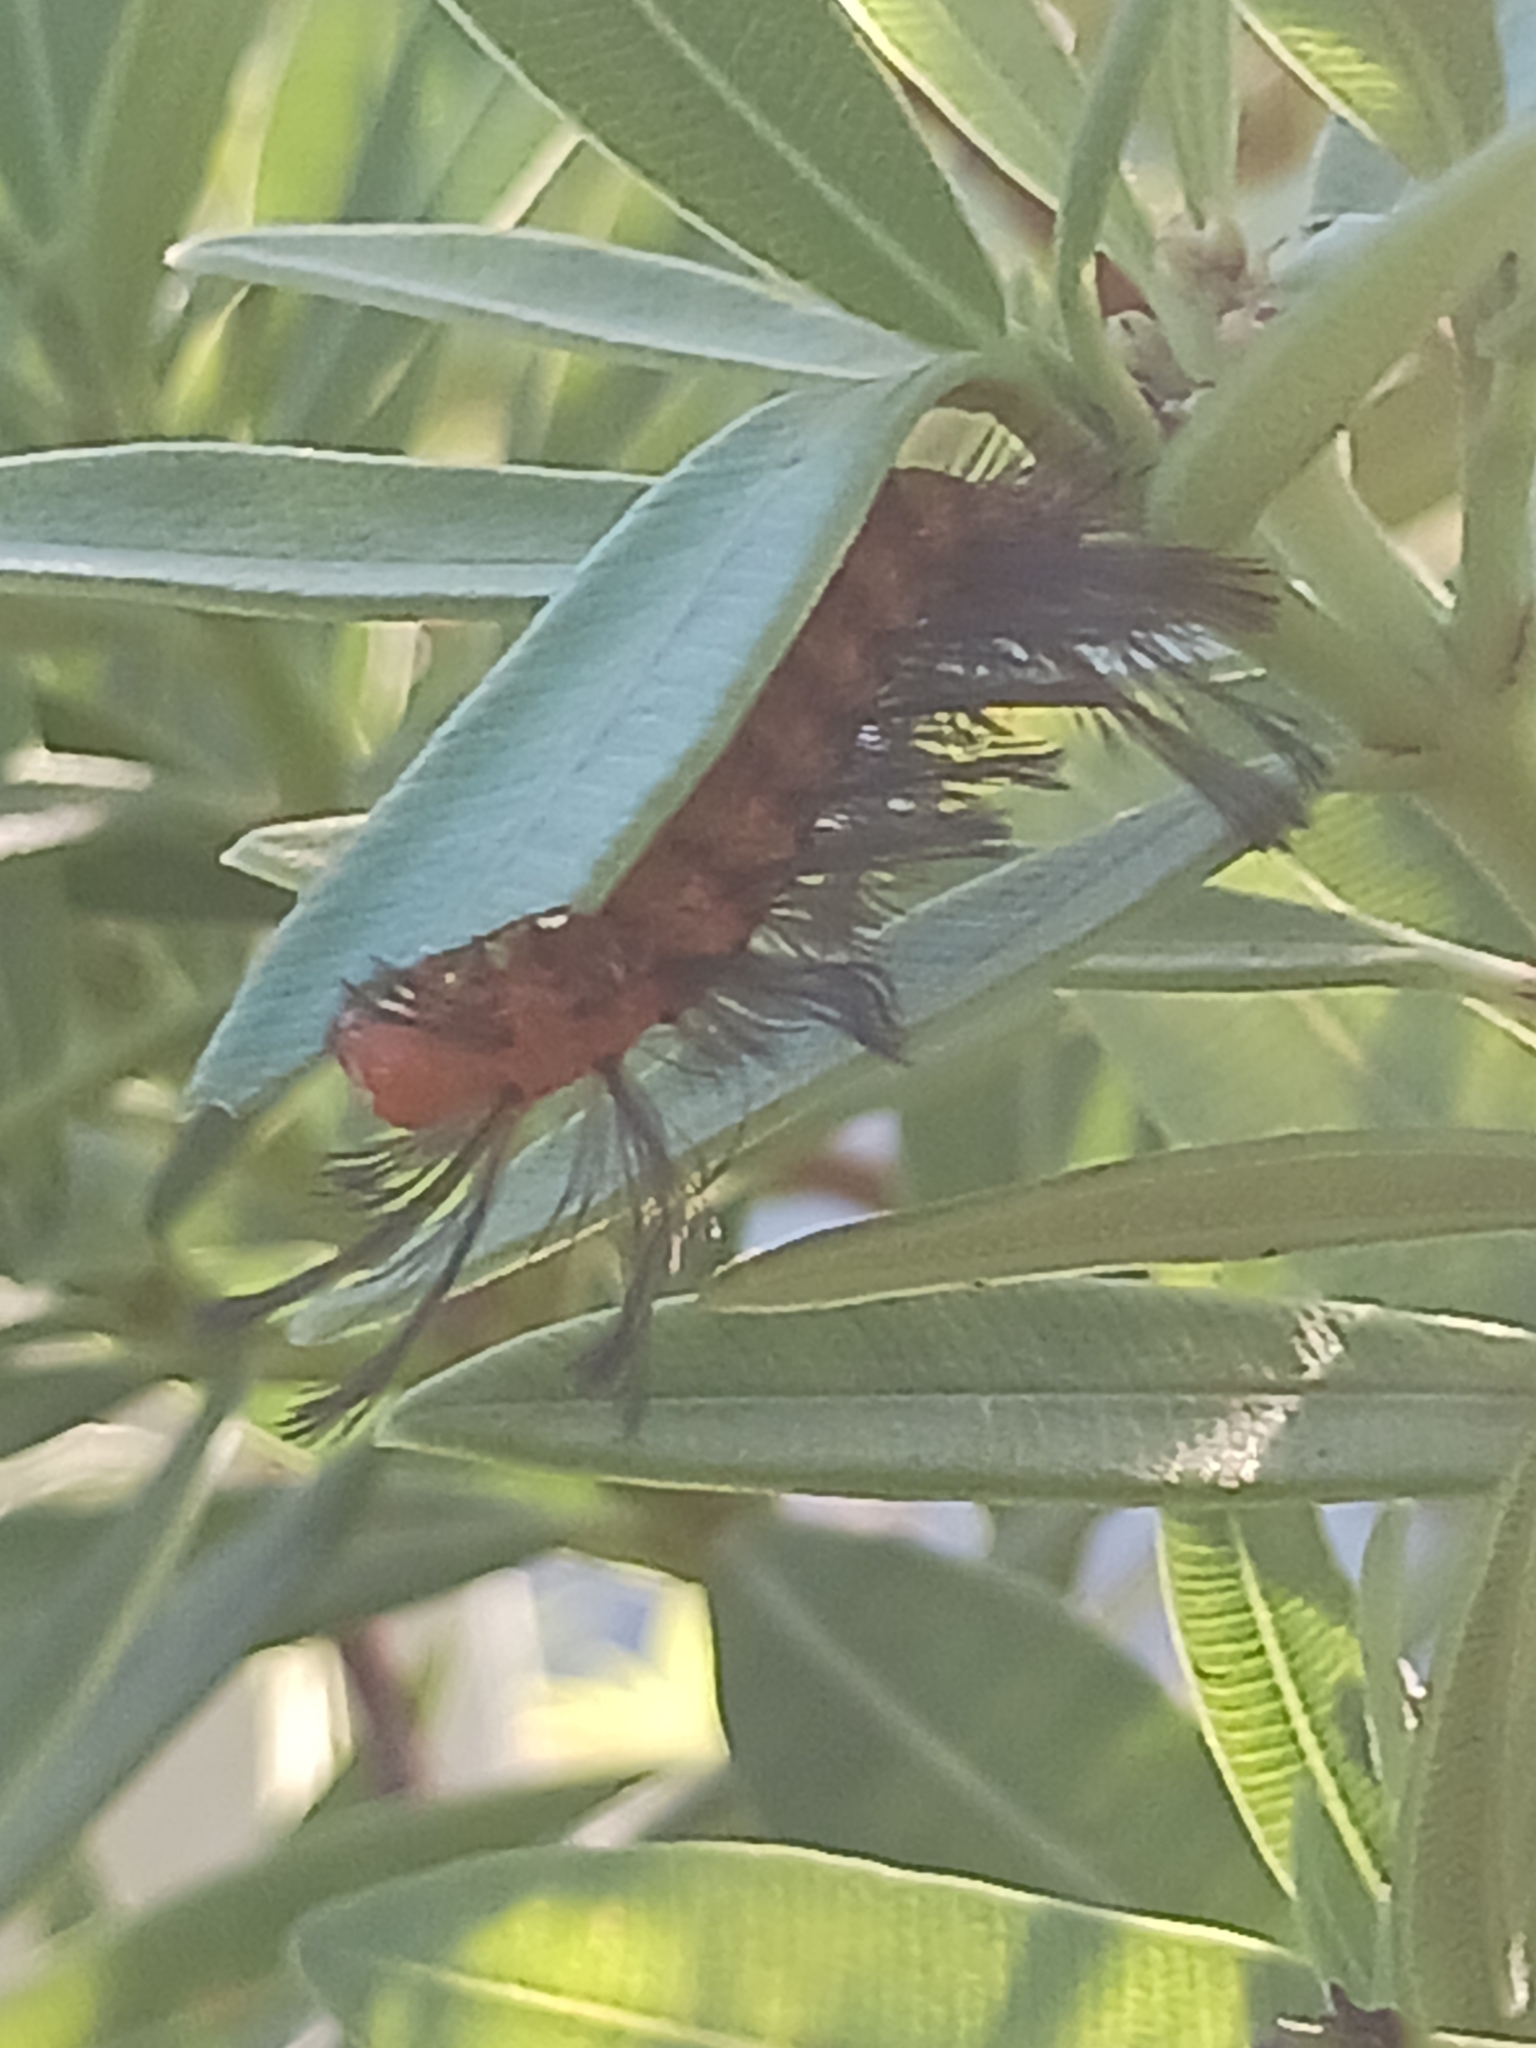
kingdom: Animalia
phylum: Arthropoda
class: Insecta
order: Lepidoptera
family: Erebidae
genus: Syntomeida
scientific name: Syntomeida epilais
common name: Polka-dot wasp moth
